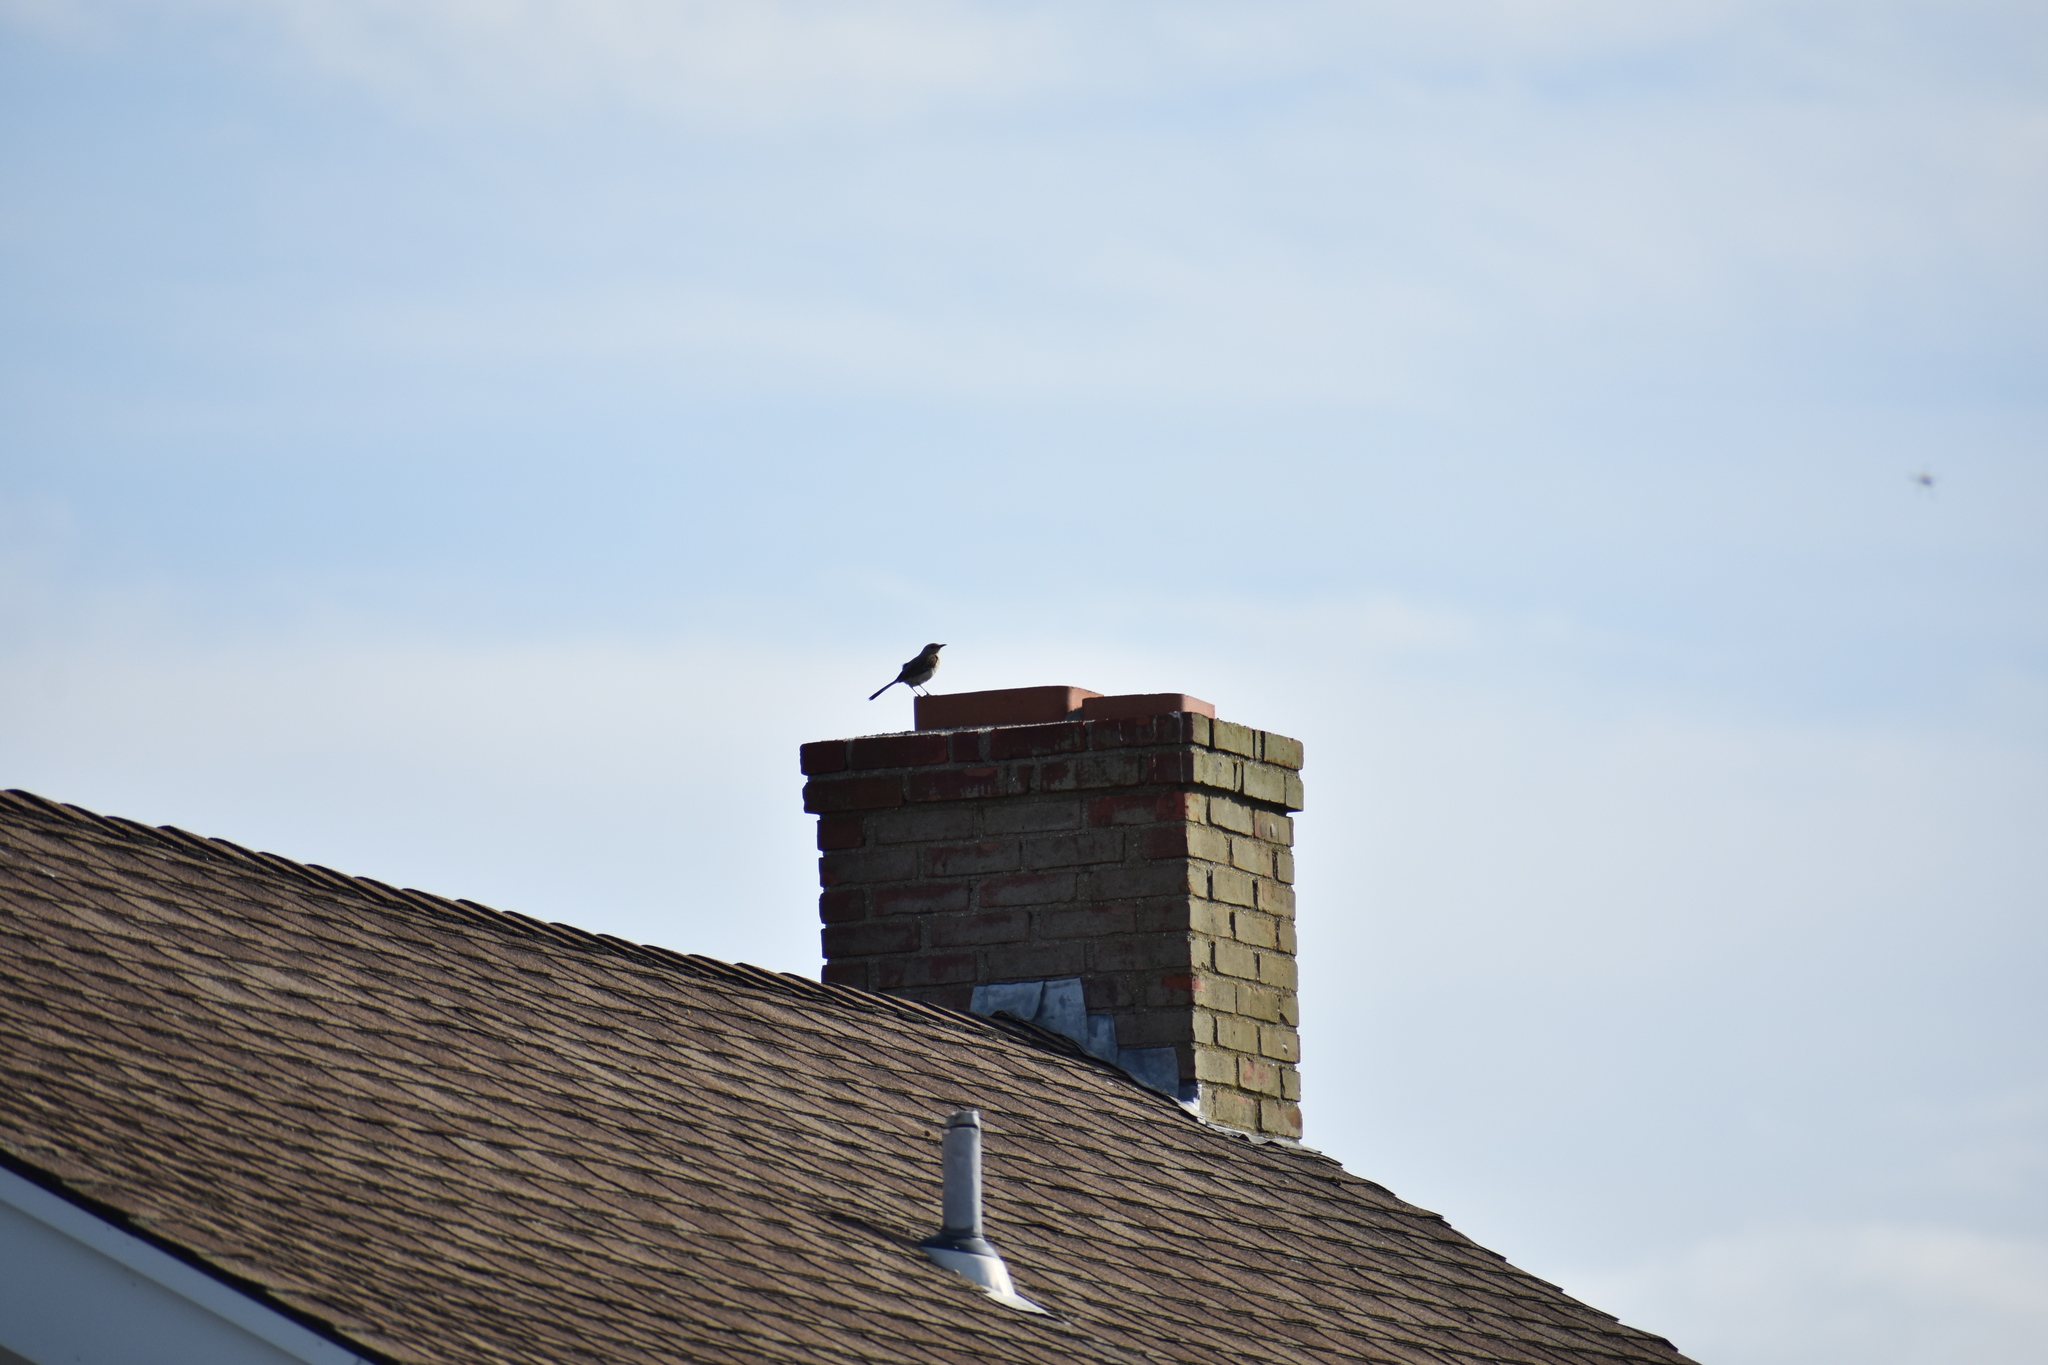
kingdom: Animalia
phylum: Chordata
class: Aves
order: Passeriformes
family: Mimidae
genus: Mimus
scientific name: Mimus polyglottos
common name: Northern mockingbird
